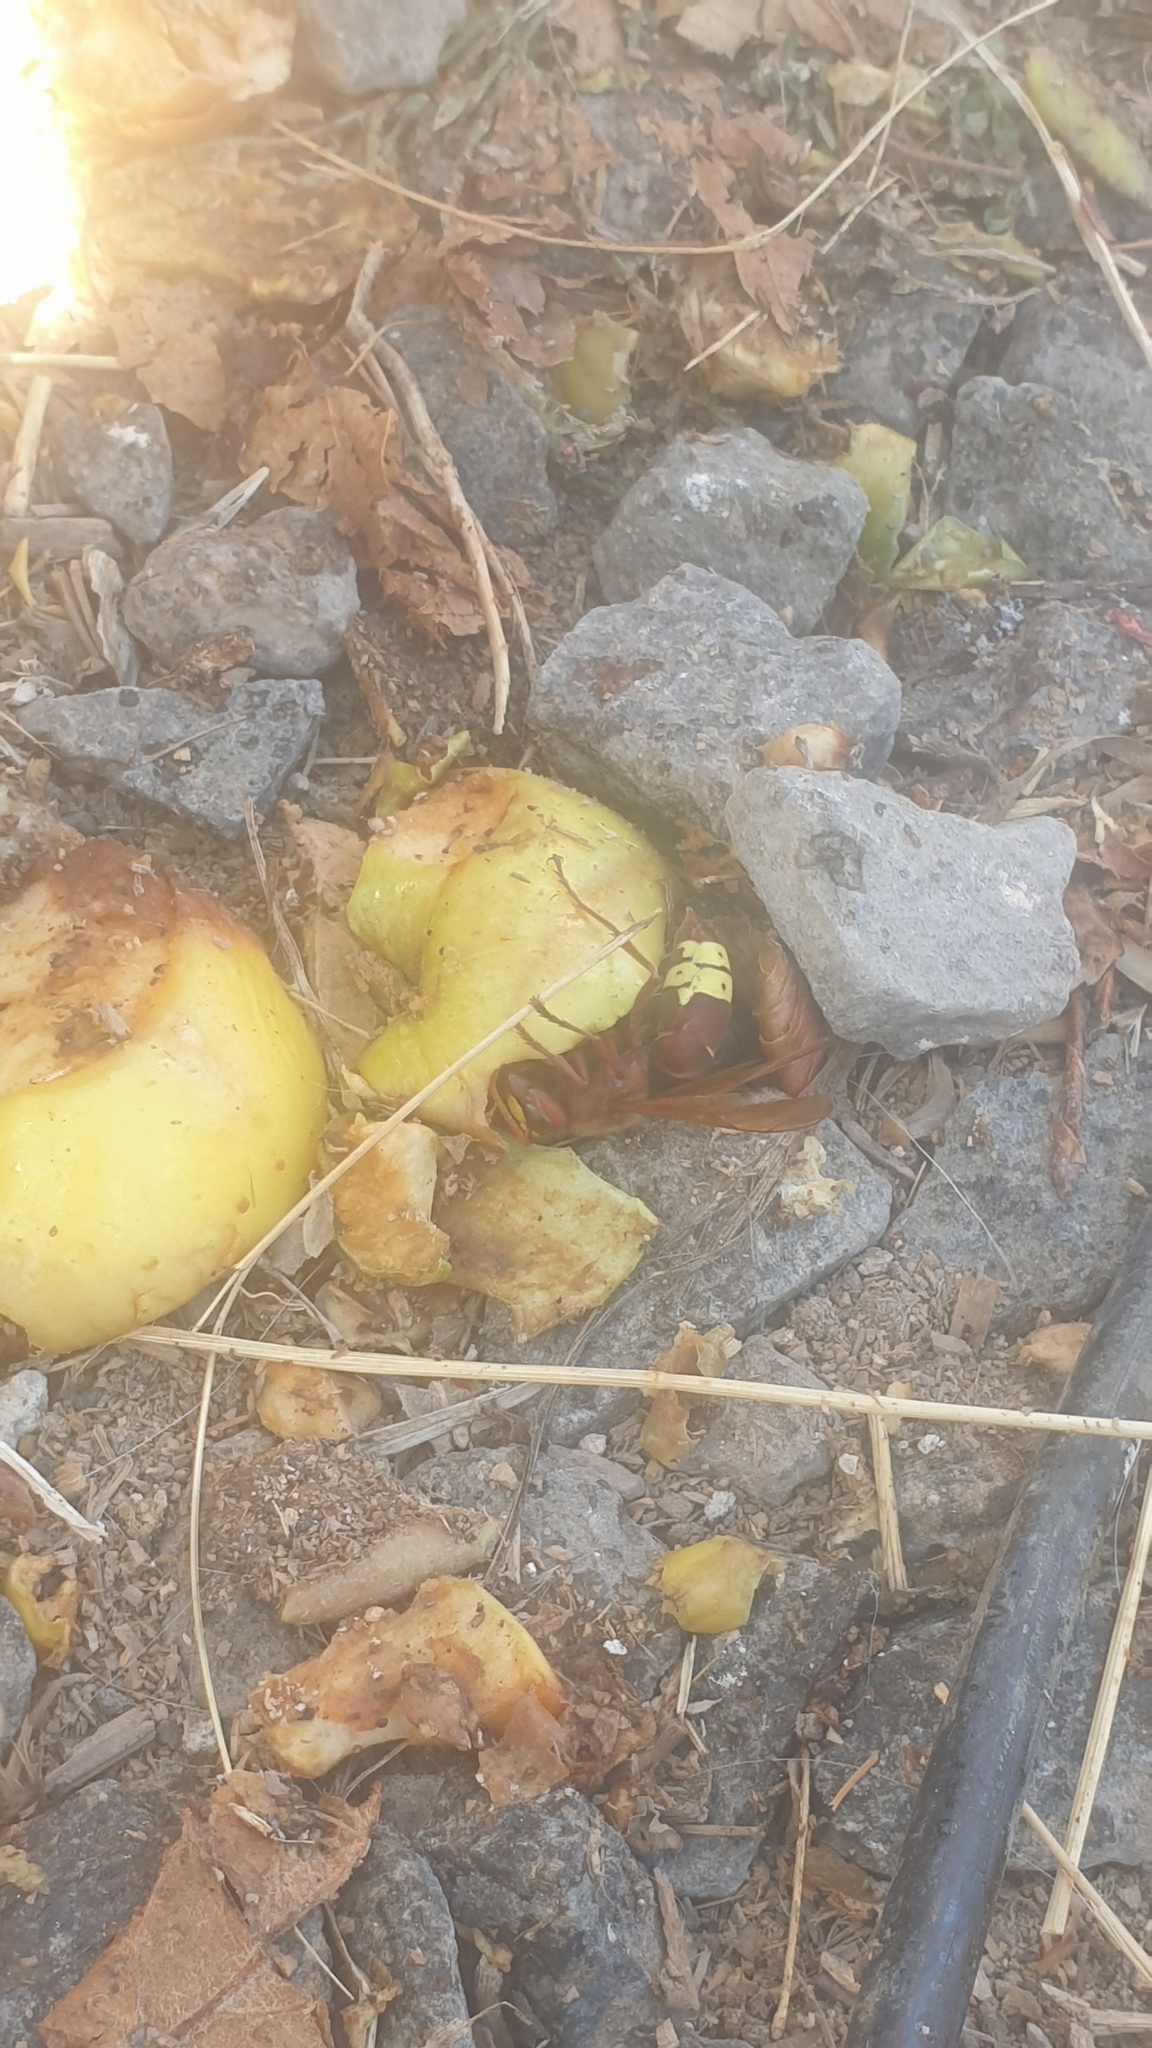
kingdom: Animalia
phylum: Arthropoda
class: Insecta
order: Hymenoptera
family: Vespidae
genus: Vespa
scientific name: Vespa orientalis
